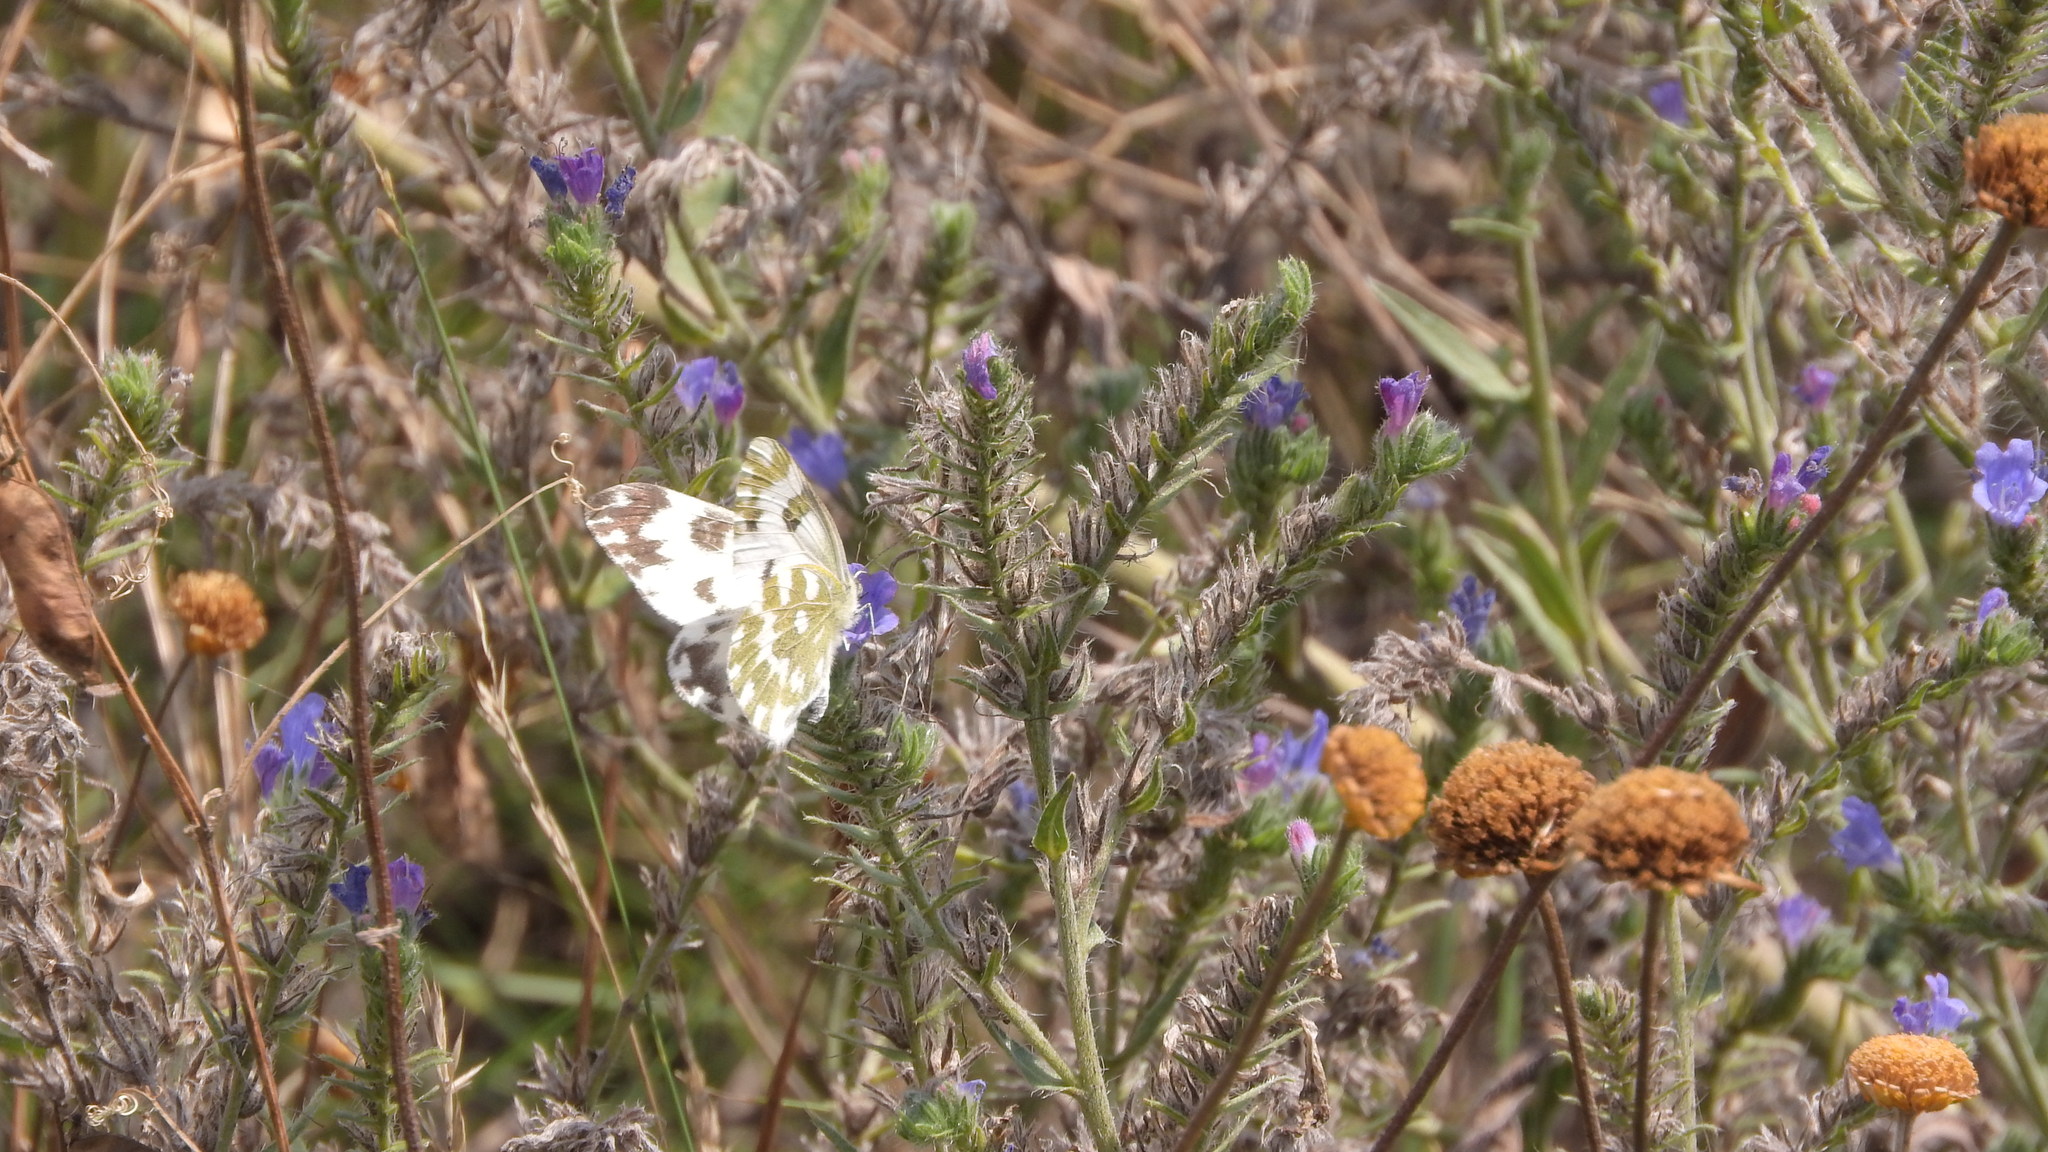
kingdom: Animalia
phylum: Arthropoda
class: Insecta
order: Lepidoptera
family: Pieridae
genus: Pontia
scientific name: Pontia edusa
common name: Eastern bath white
